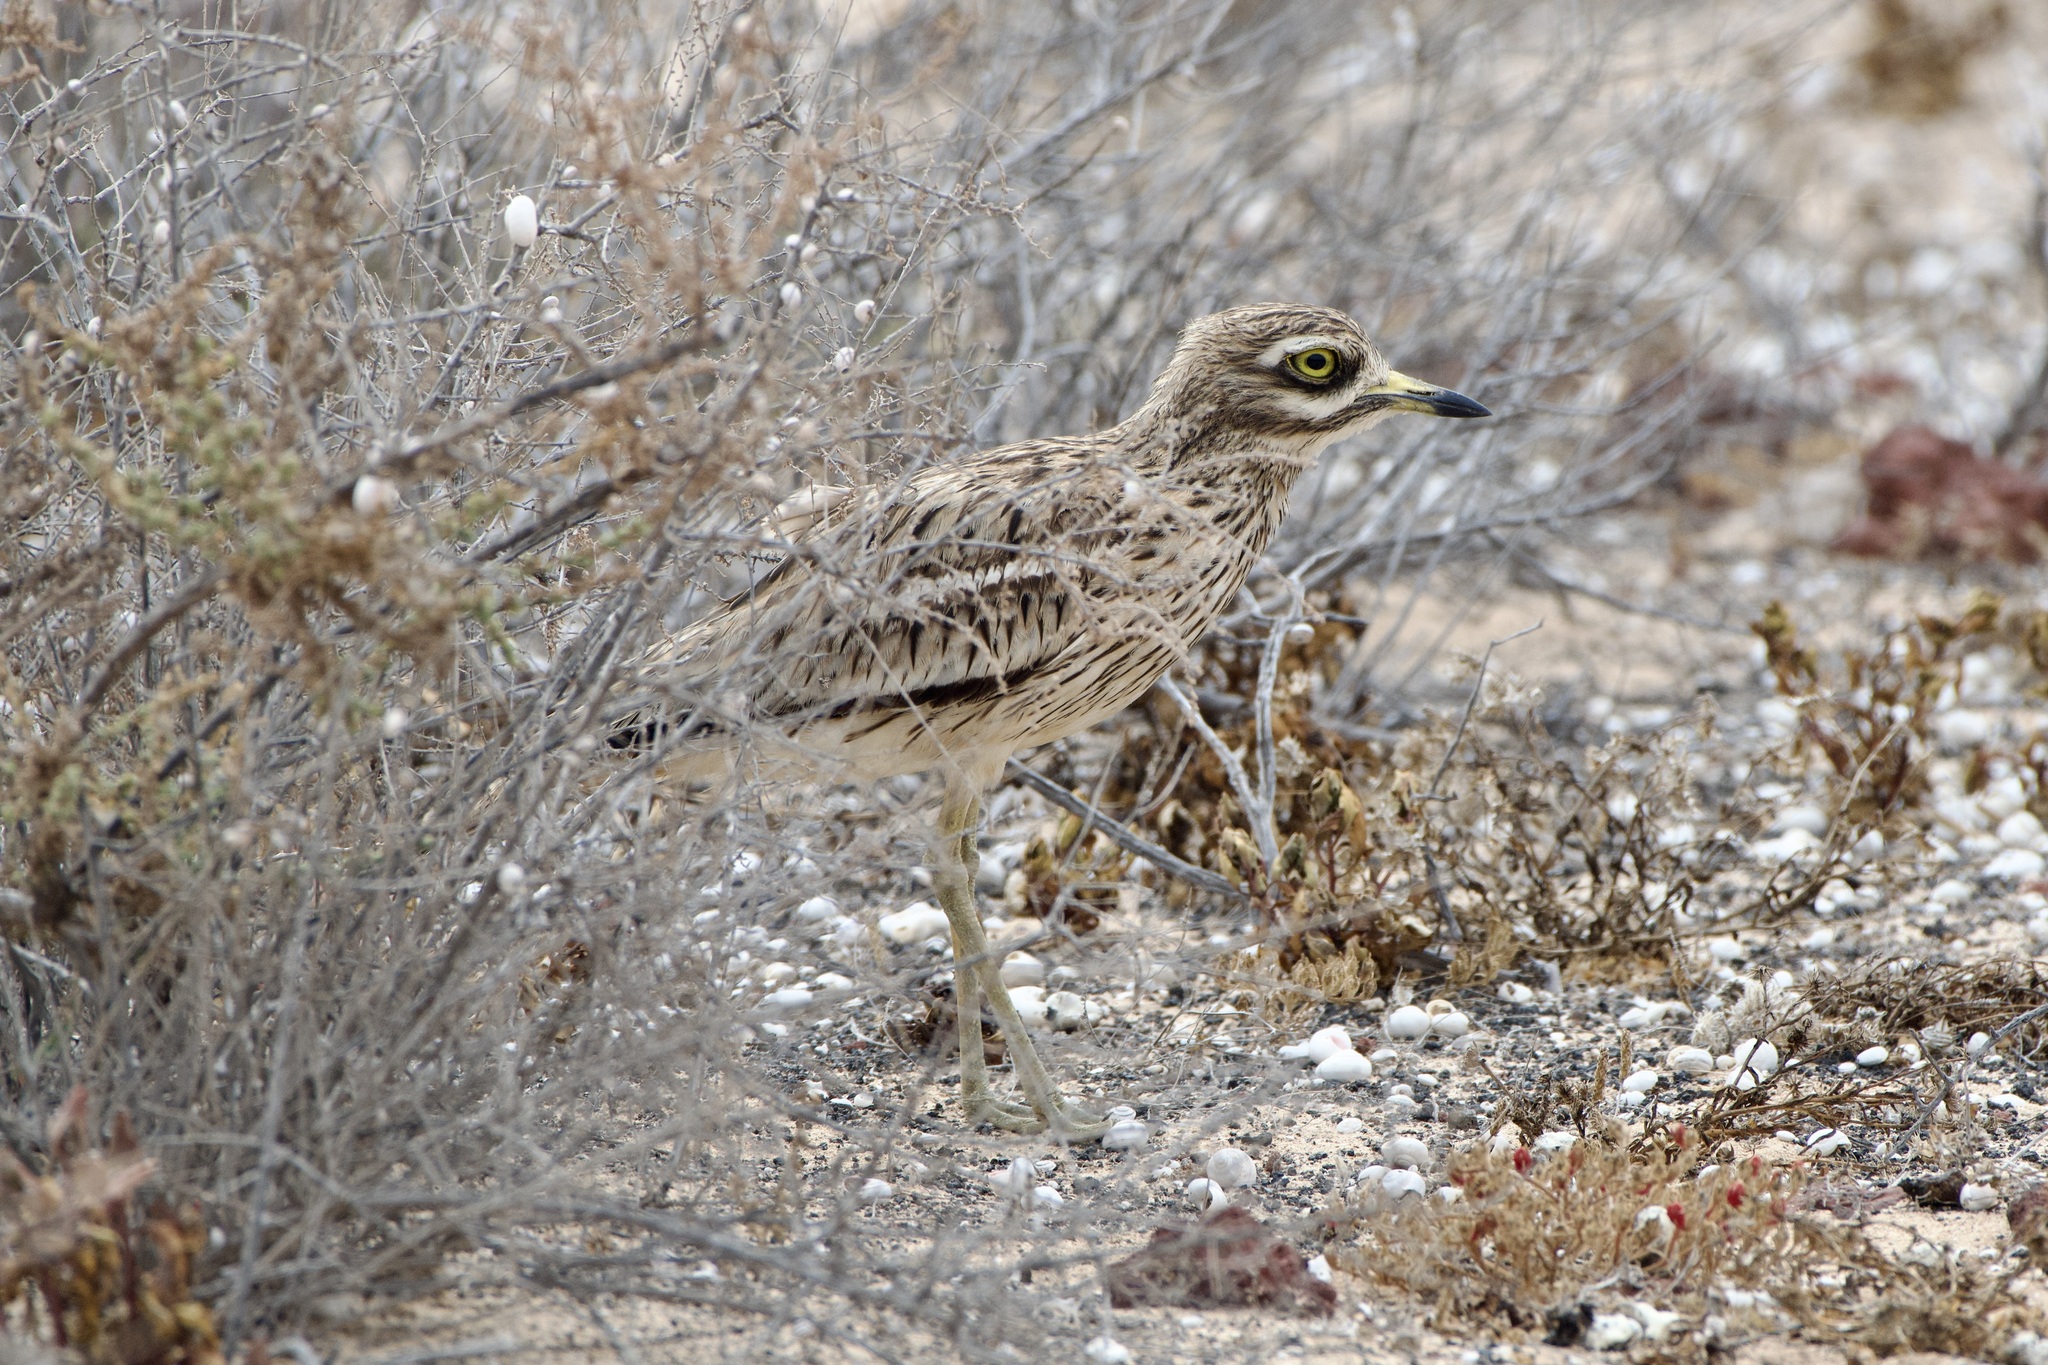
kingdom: Animalia
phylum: Chordata
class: Aves
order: Charadriiformes
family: Burhinidae
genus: Burhinus
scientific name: Burhinus oedicnemus
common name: Eurasian stone-curlew
